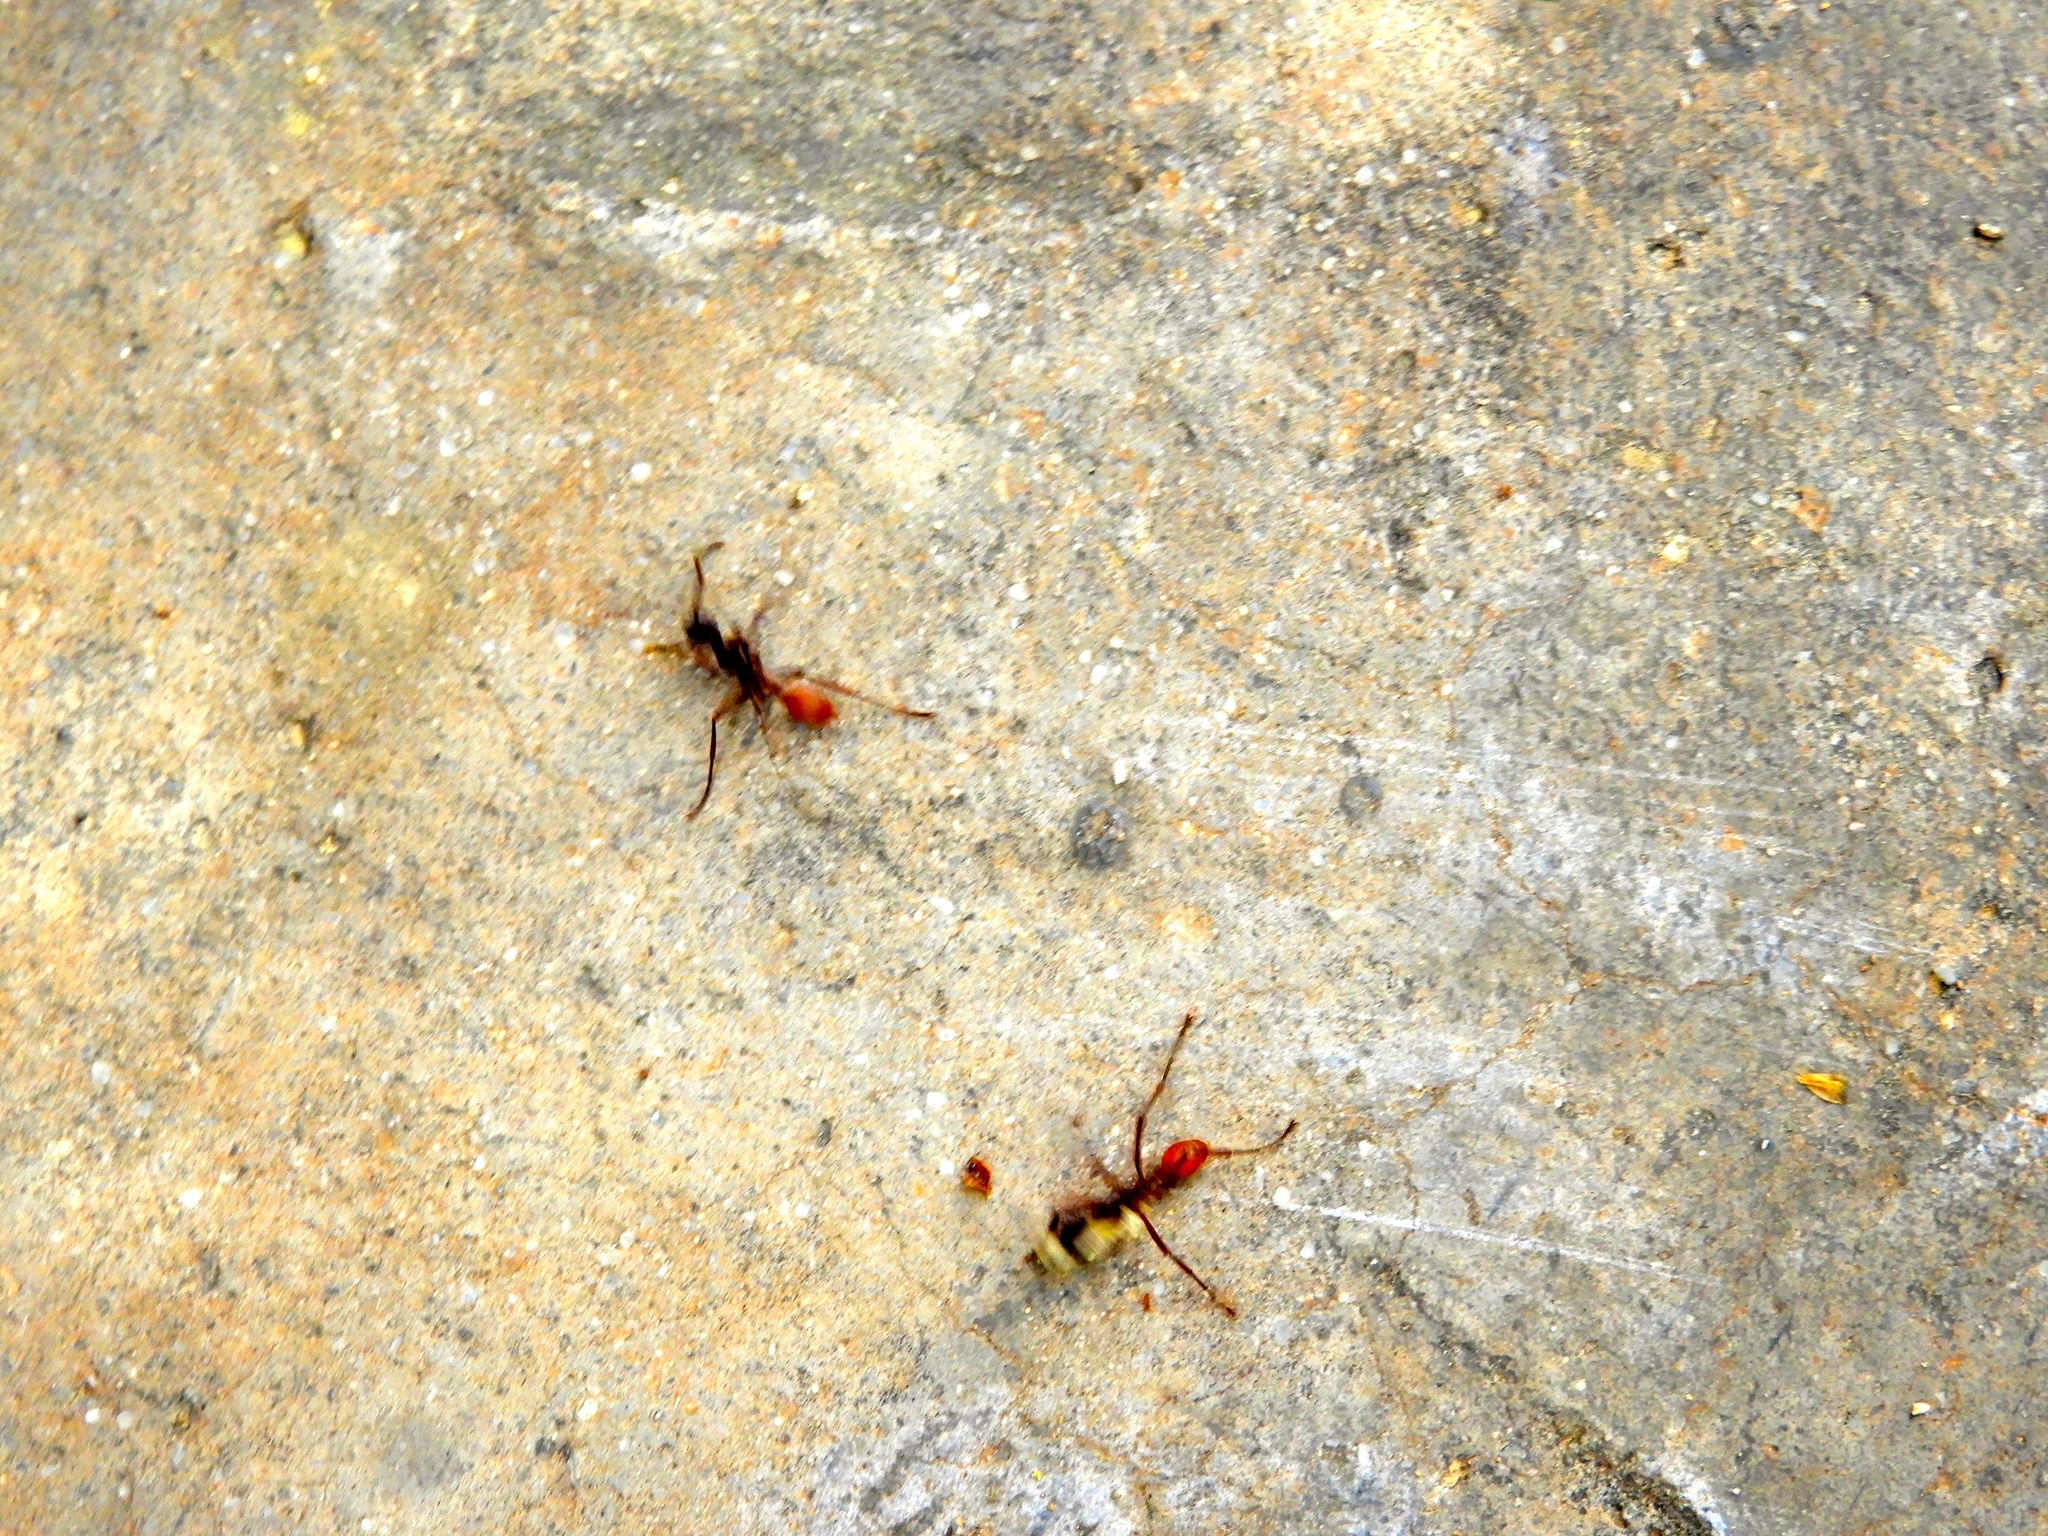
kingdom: Animalia
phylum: Arthropoda
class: Insecta
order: Hymenoptera
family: Formicidae
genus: Eciton
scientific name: Eciton
